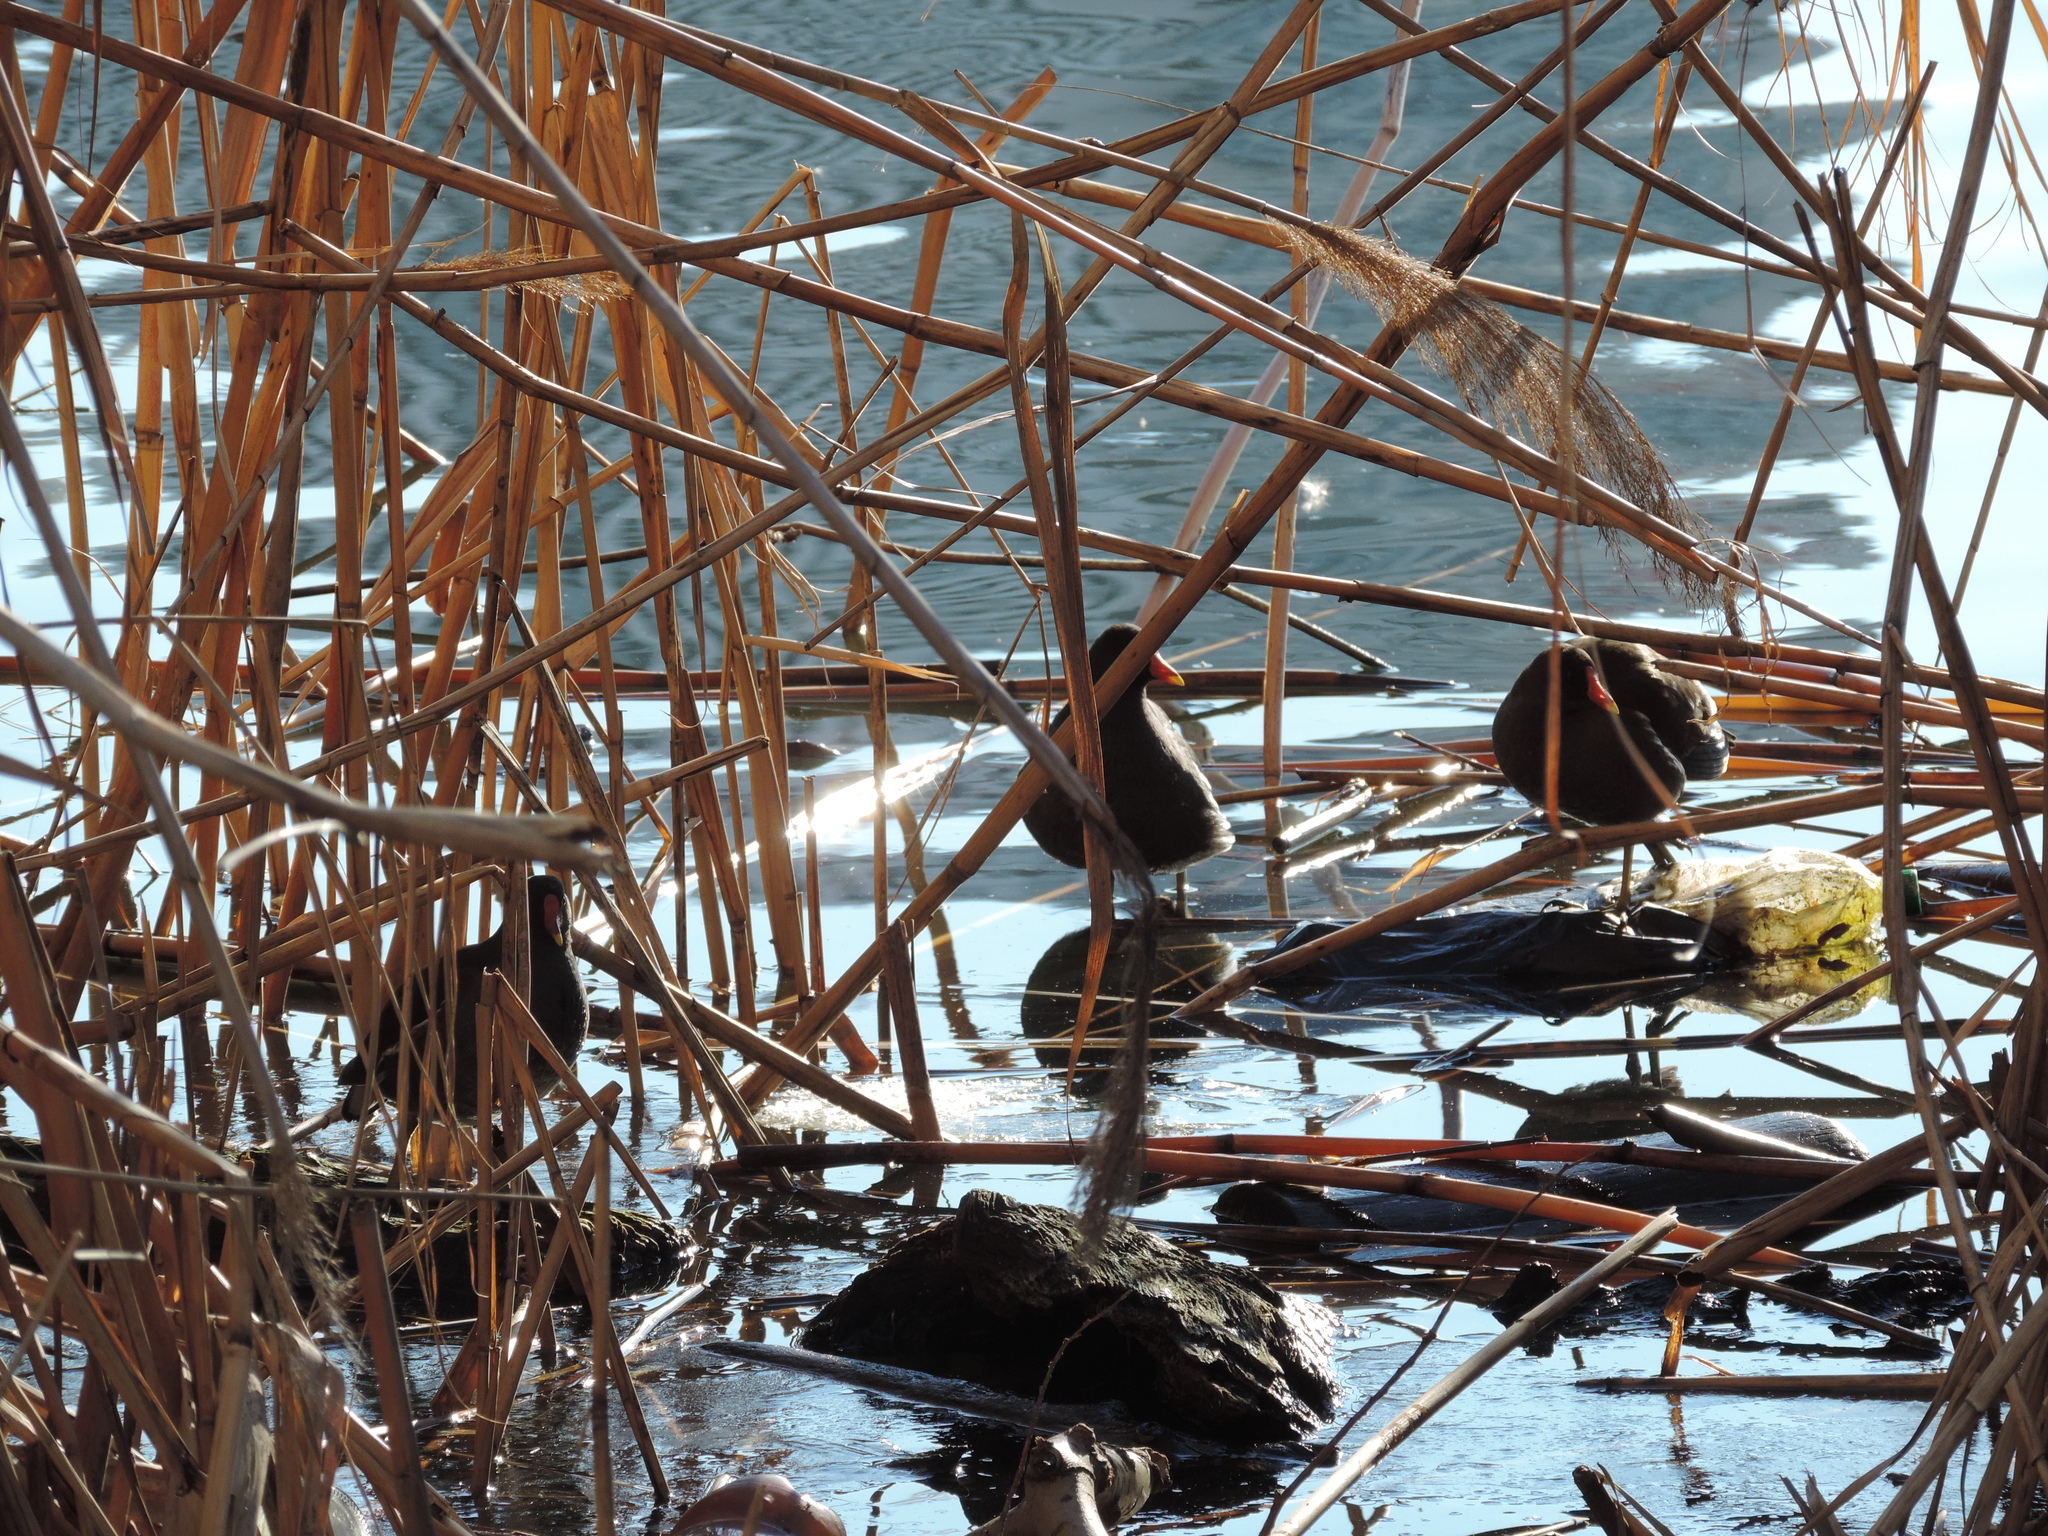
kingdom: Animalia
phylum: Chordata
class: Aves
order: Gruiformes
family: Rallidae
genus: Gallinula
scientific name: Gallinula chloropus
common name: Common moorhen
